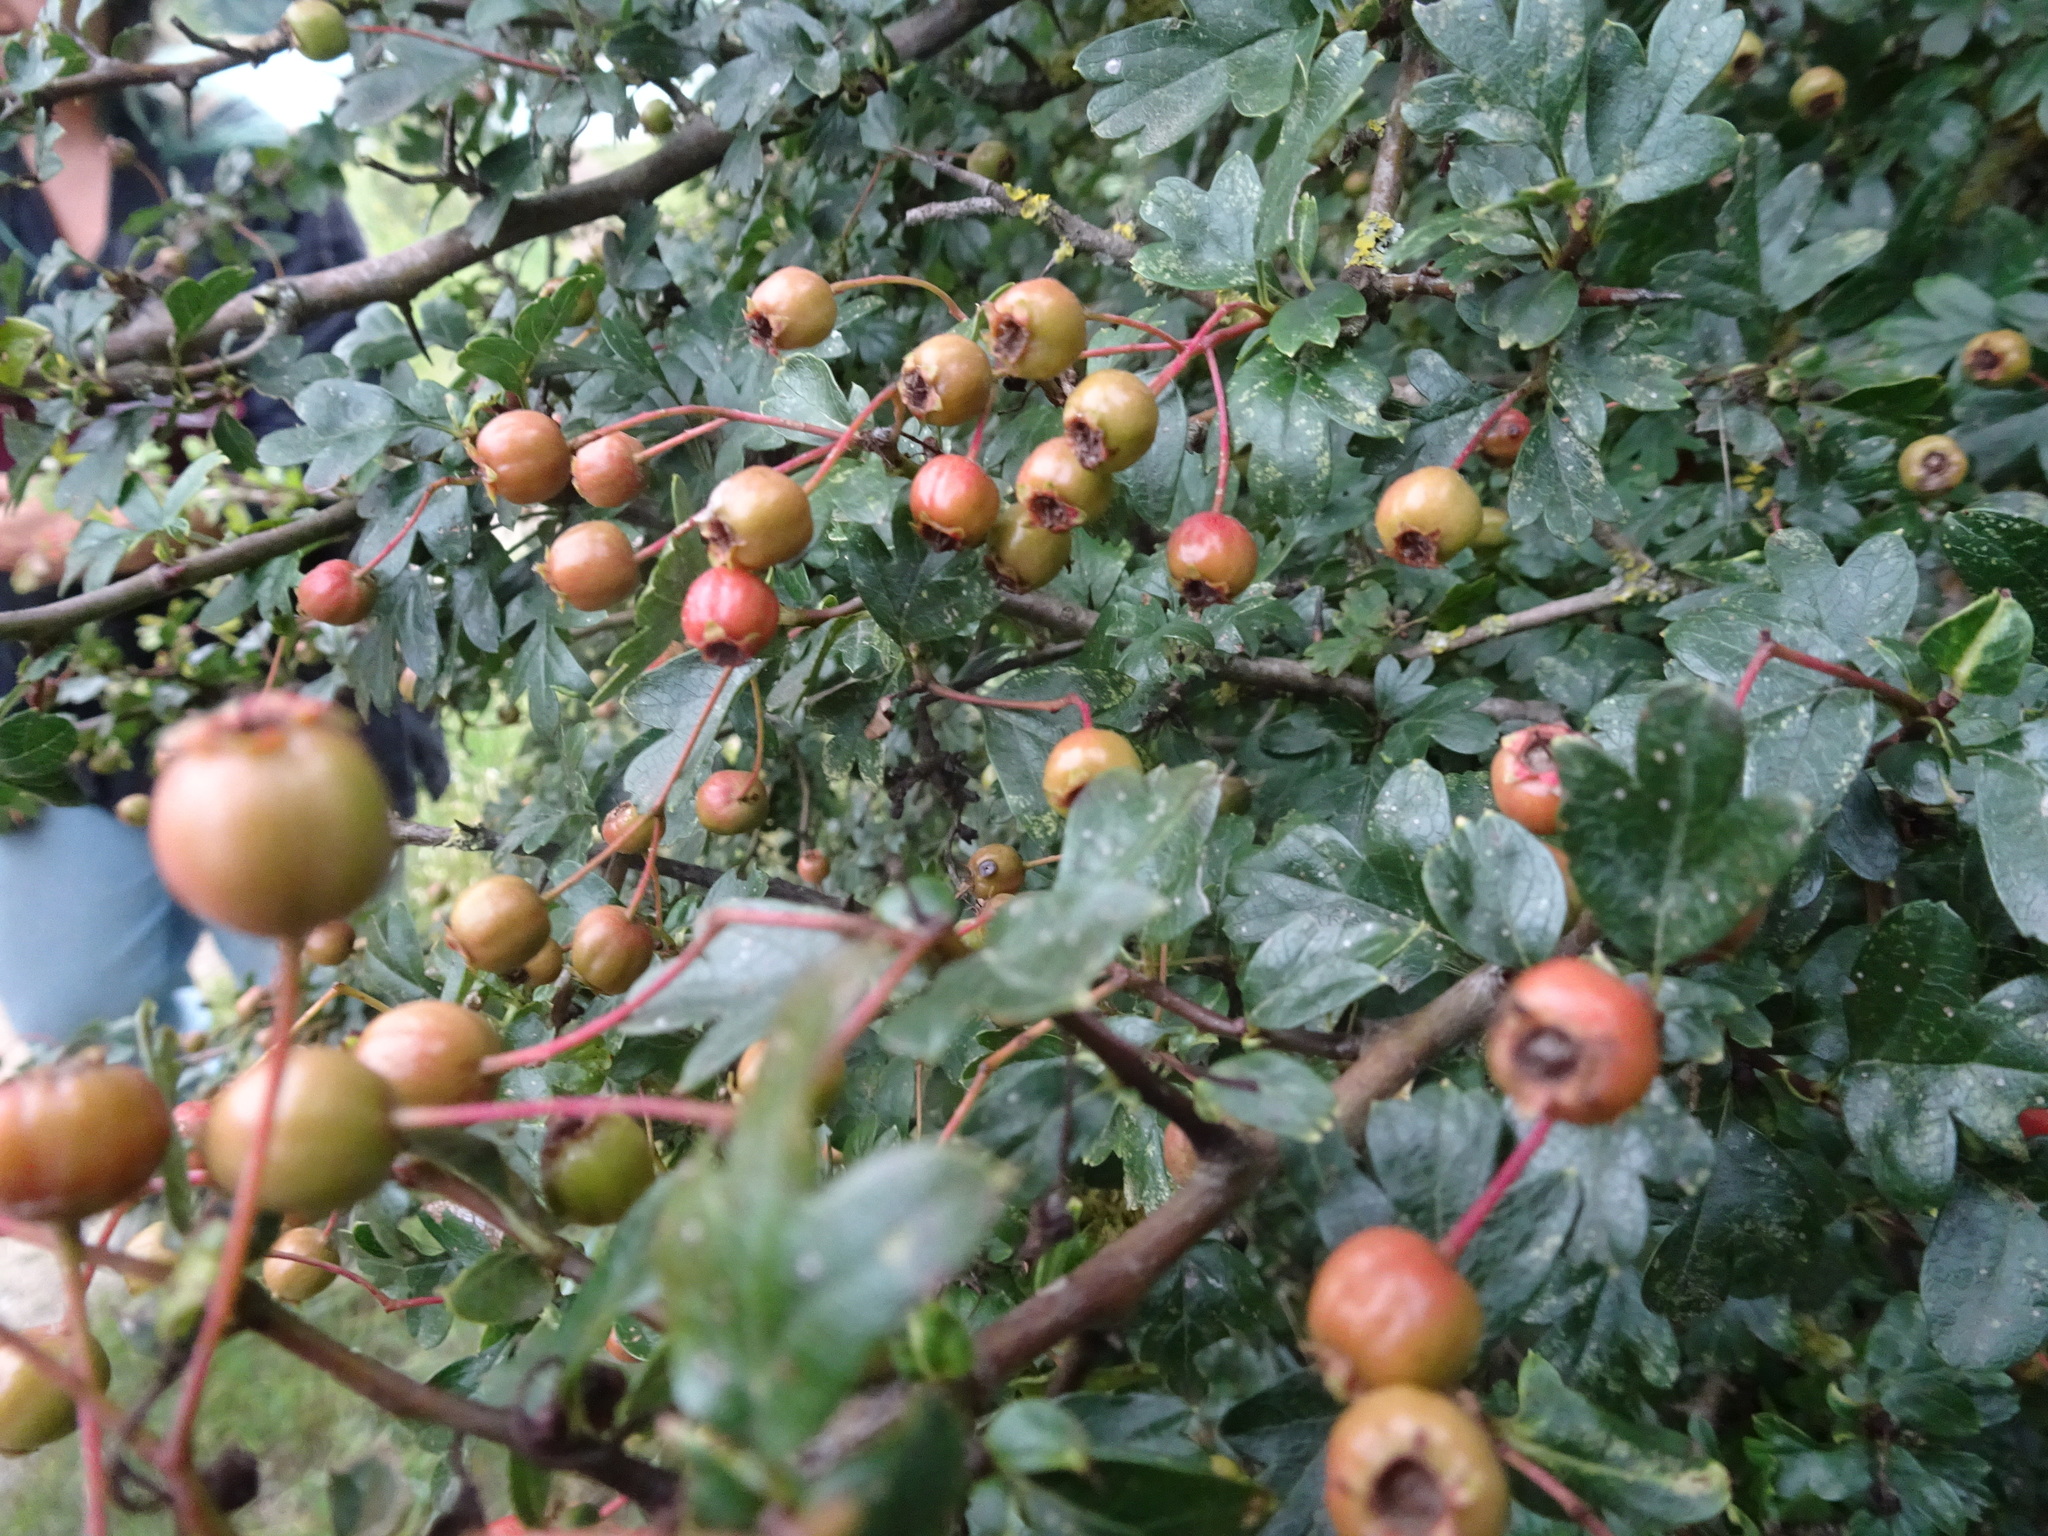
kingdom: Plantae
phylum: Tracheophyta
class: Magnoliopsida
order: Rosales
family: Rosaceae
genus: Crataegus
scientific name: Crataegus monogyna
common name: Hawthorn
